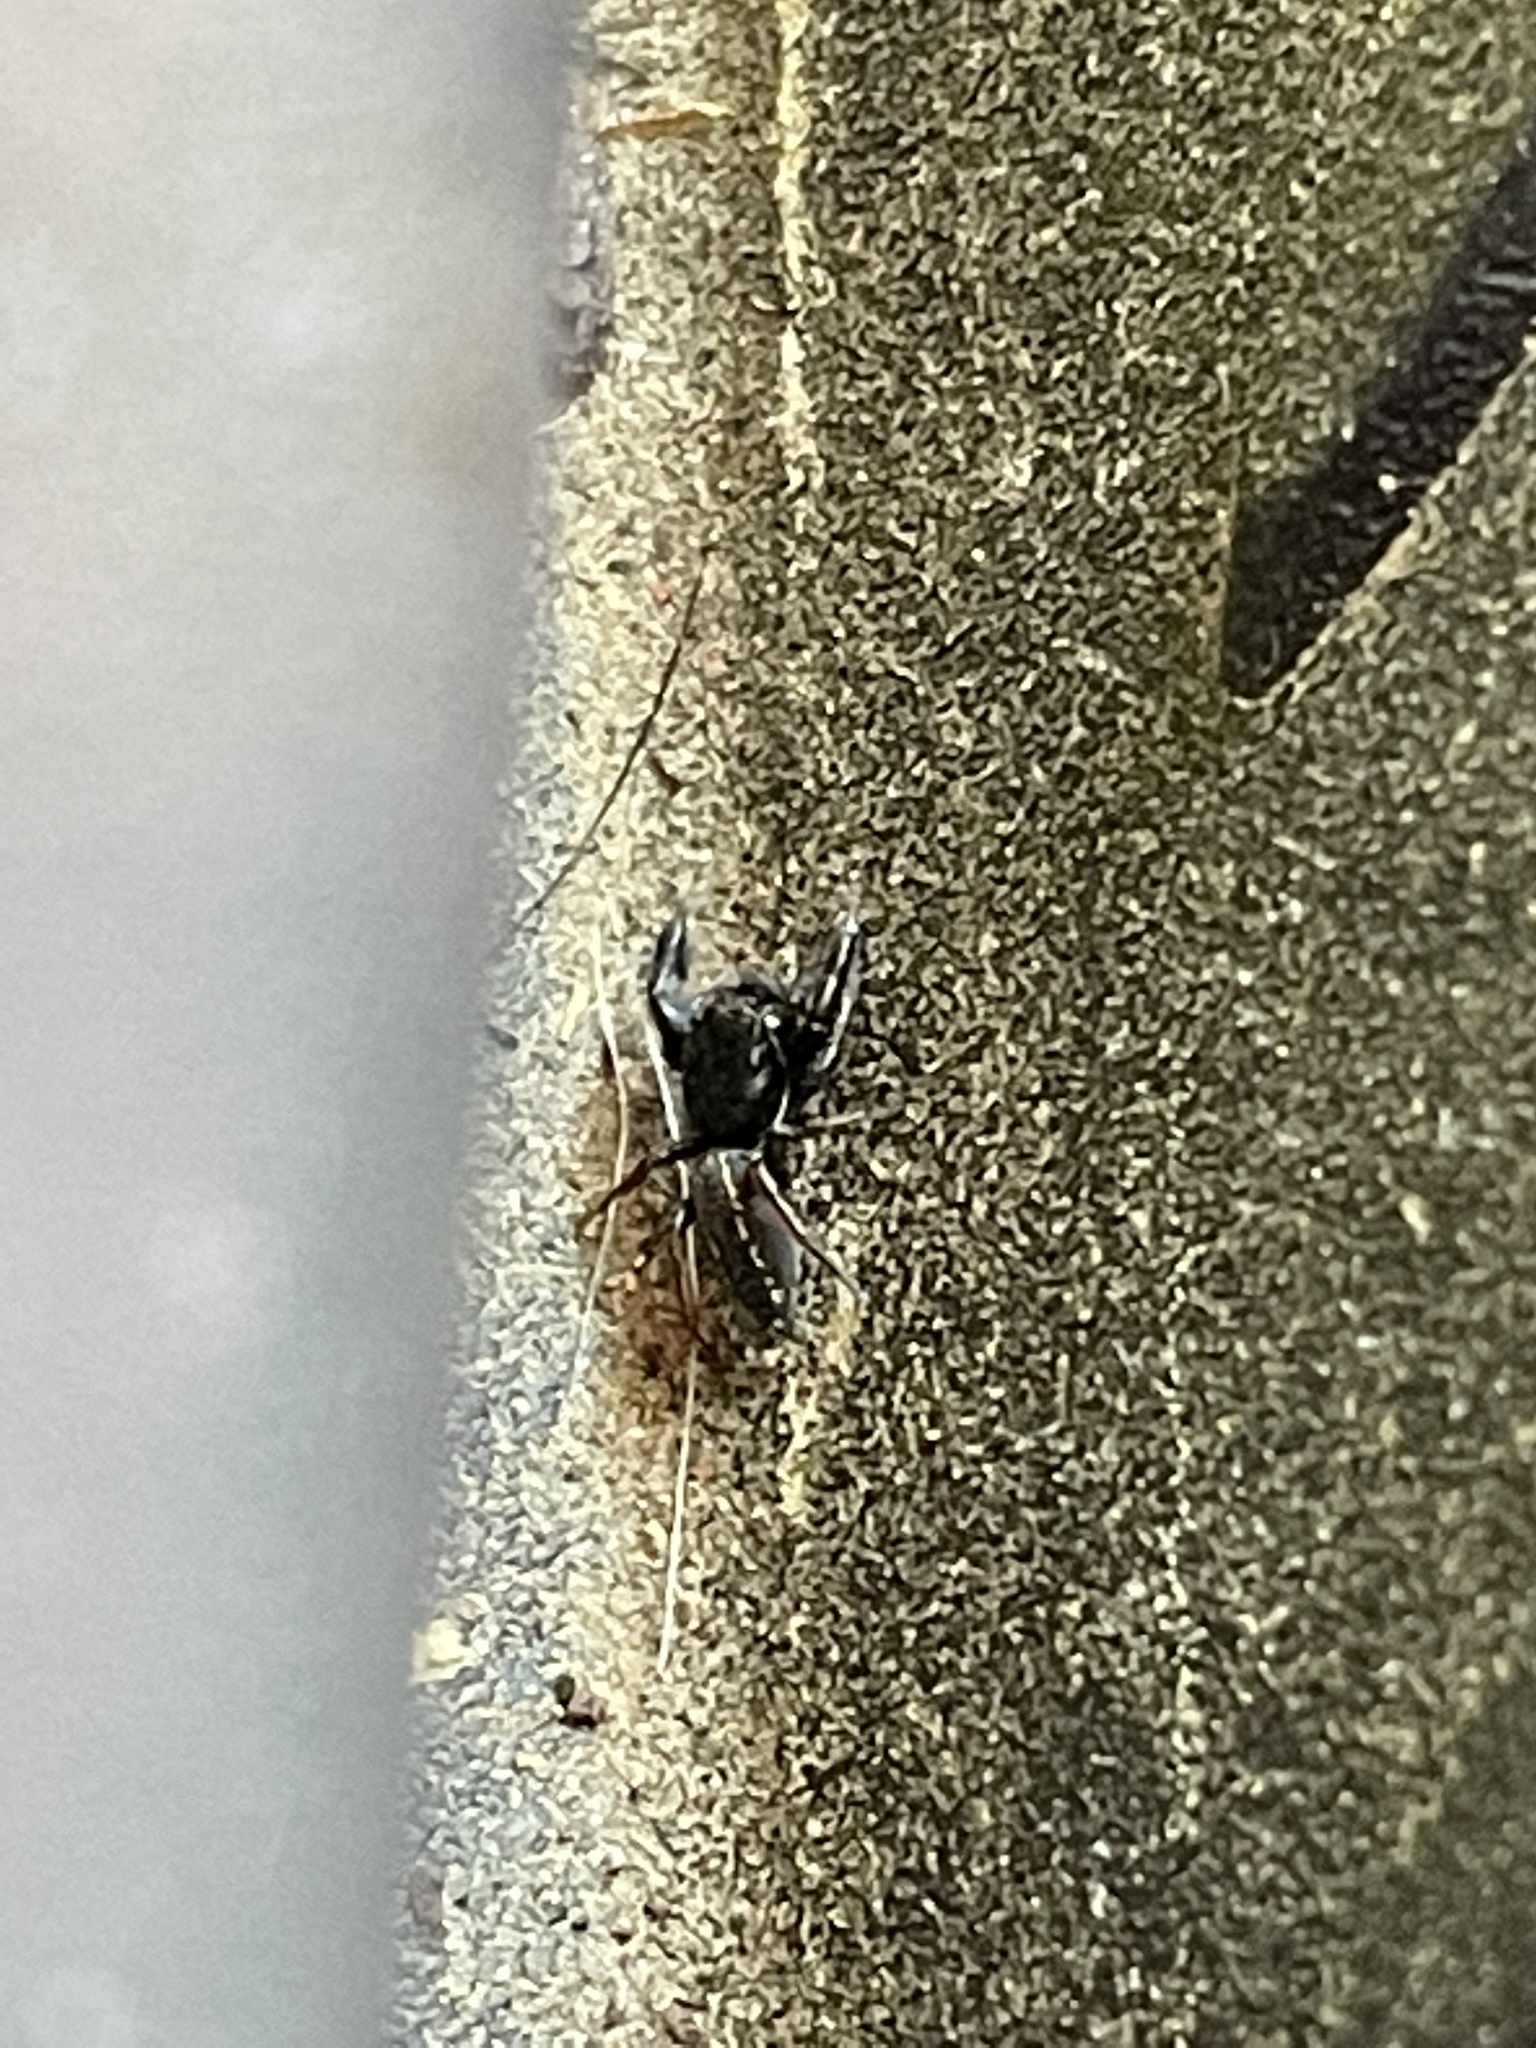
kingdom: Animalia
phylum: Arthropoda
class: Arachnida
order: Araneae
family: Salticidae
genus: Metacyrba
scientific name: Metacyrba taeniola
